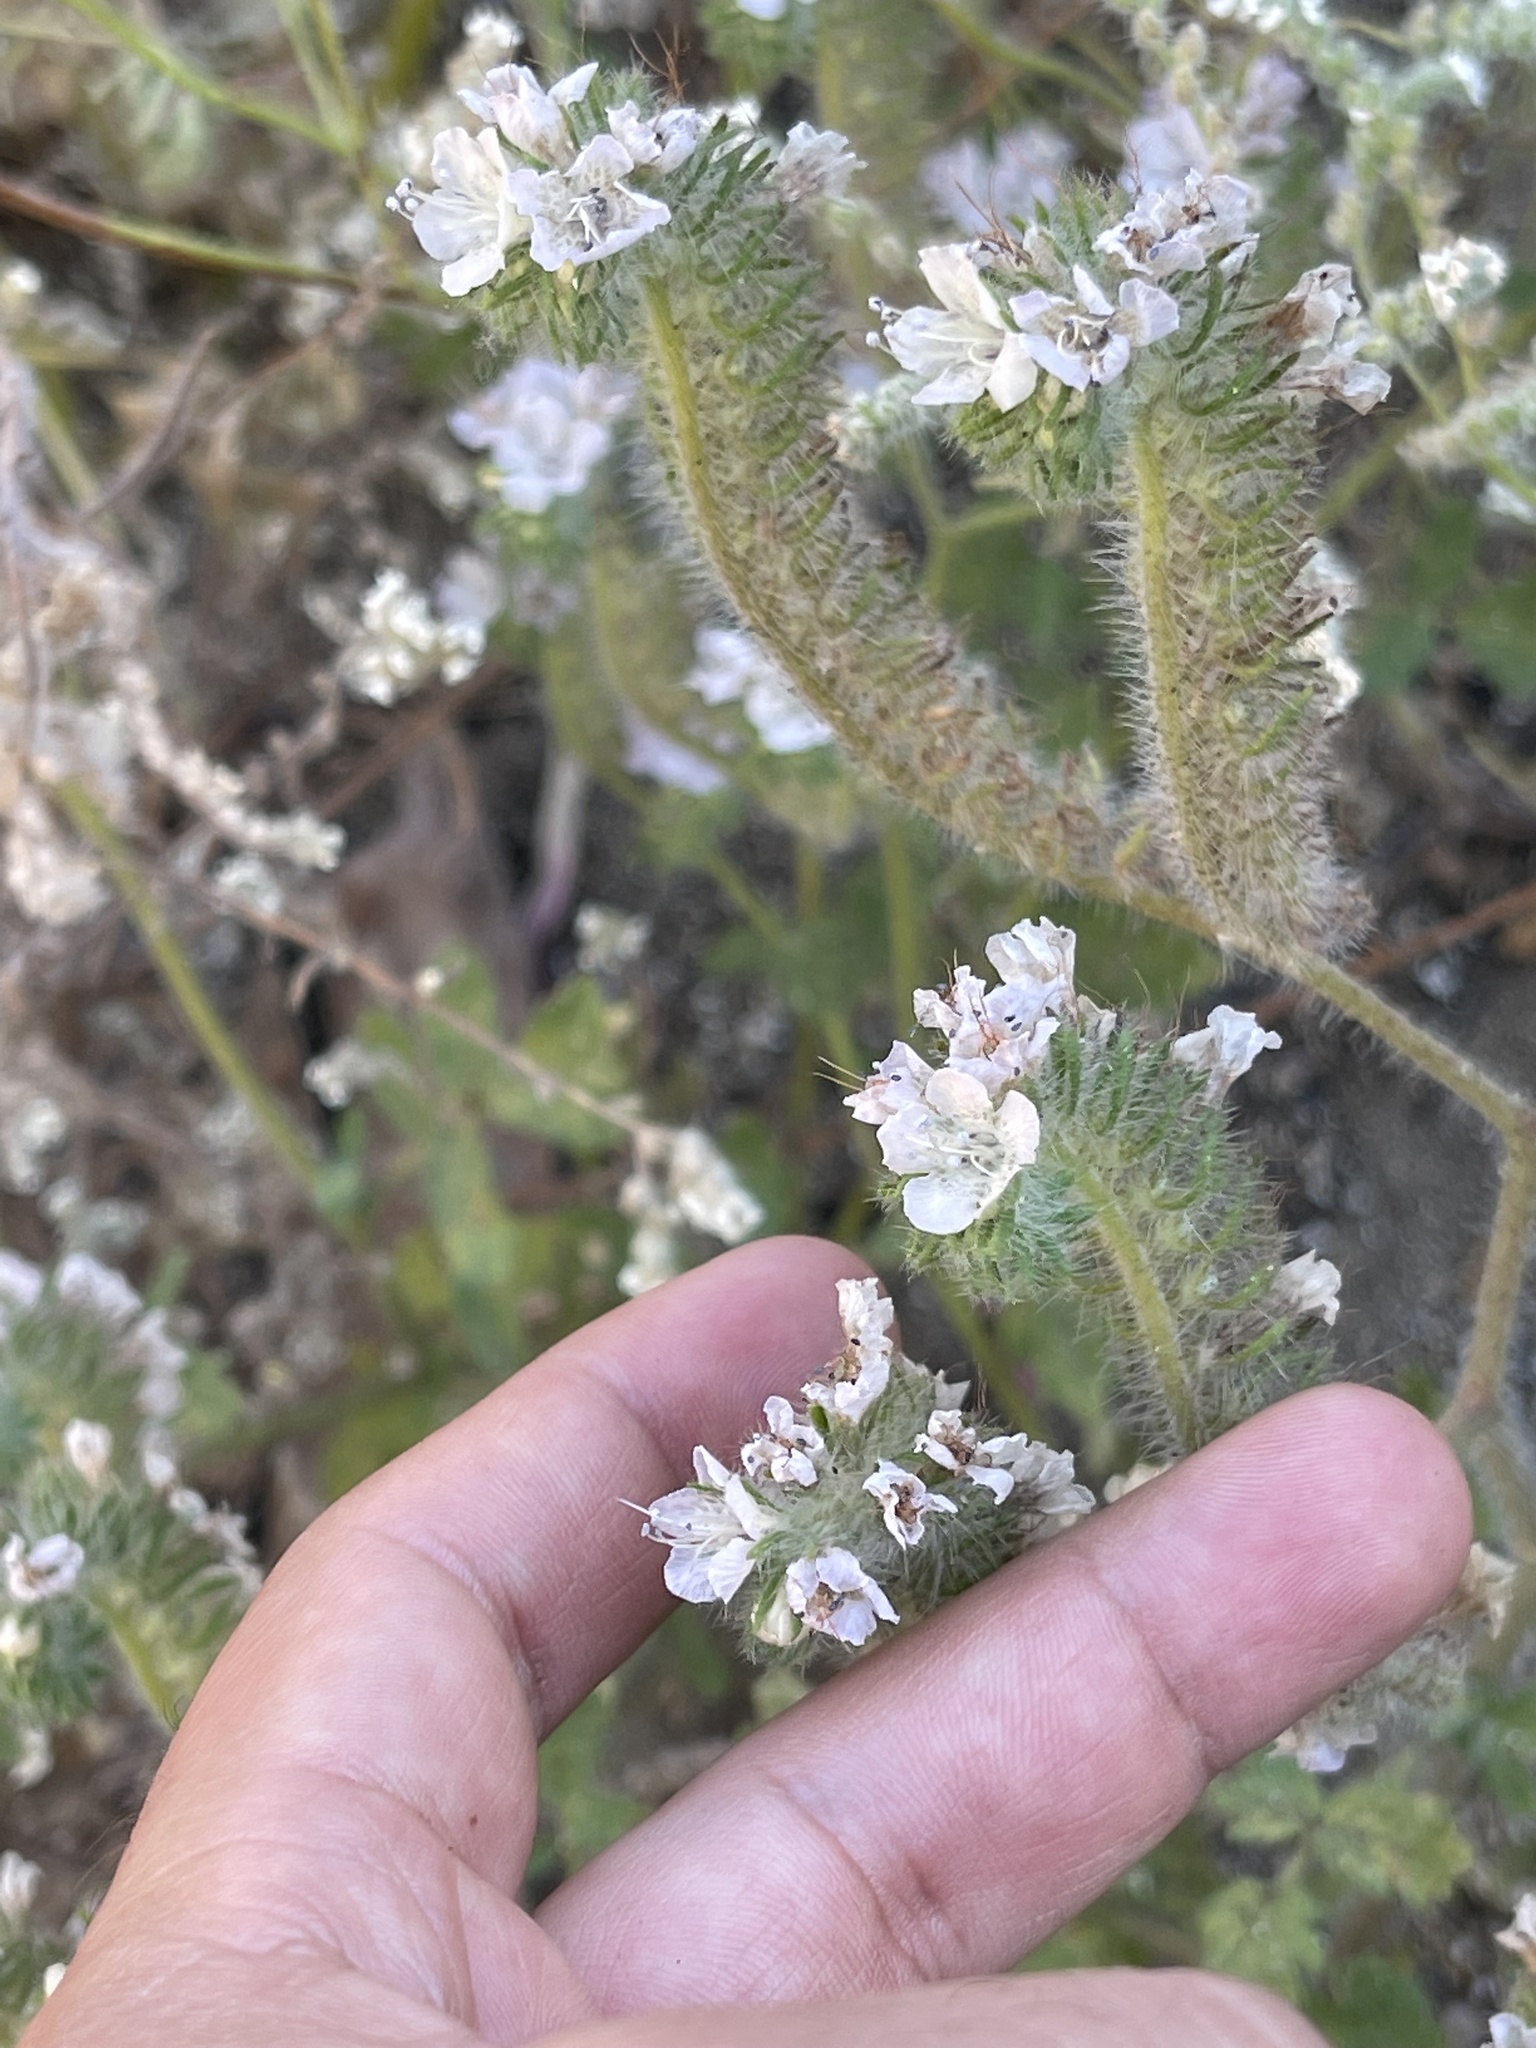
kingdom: Plantae
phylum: Tracheophyta
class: Magnoliopsida
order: Boraginales
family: Hydrophyllaceae
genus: Phacelia
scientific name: Phacelia cicutaria
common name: Caterpillar phacelia
